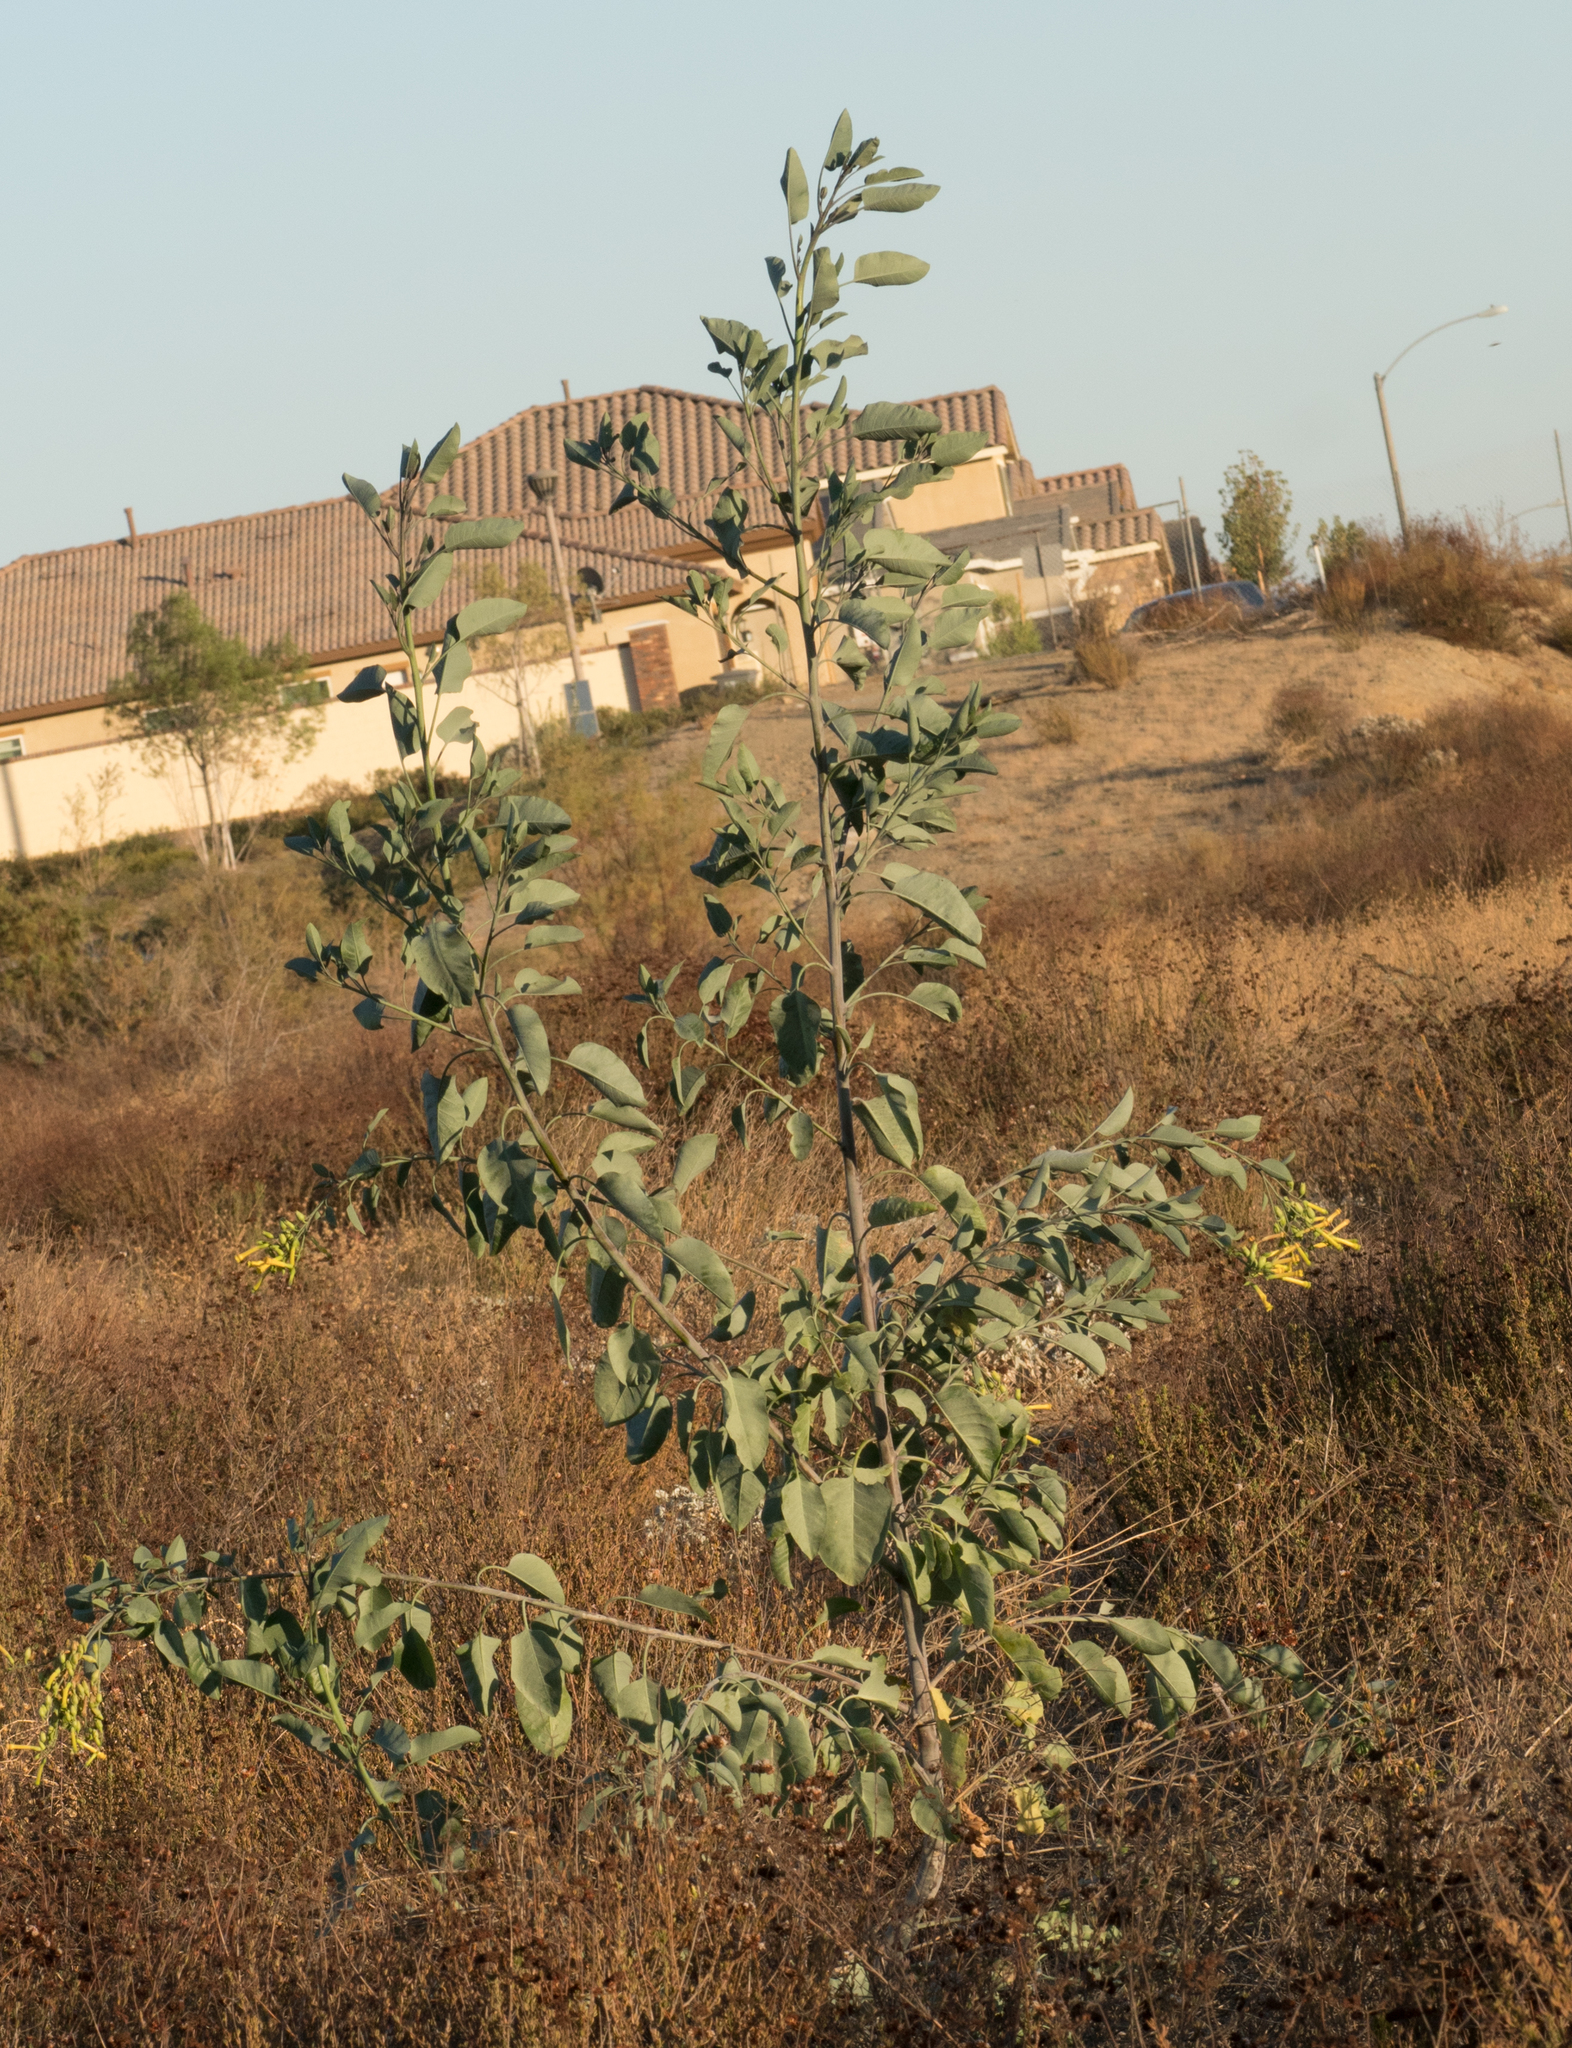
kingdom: Plantae
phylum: Tracheophyta
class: Magnoliopsida
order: Solanales
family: Solanaceae
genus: Nicotiana
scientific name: Nicotiana glauca
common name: Tree tobacco
